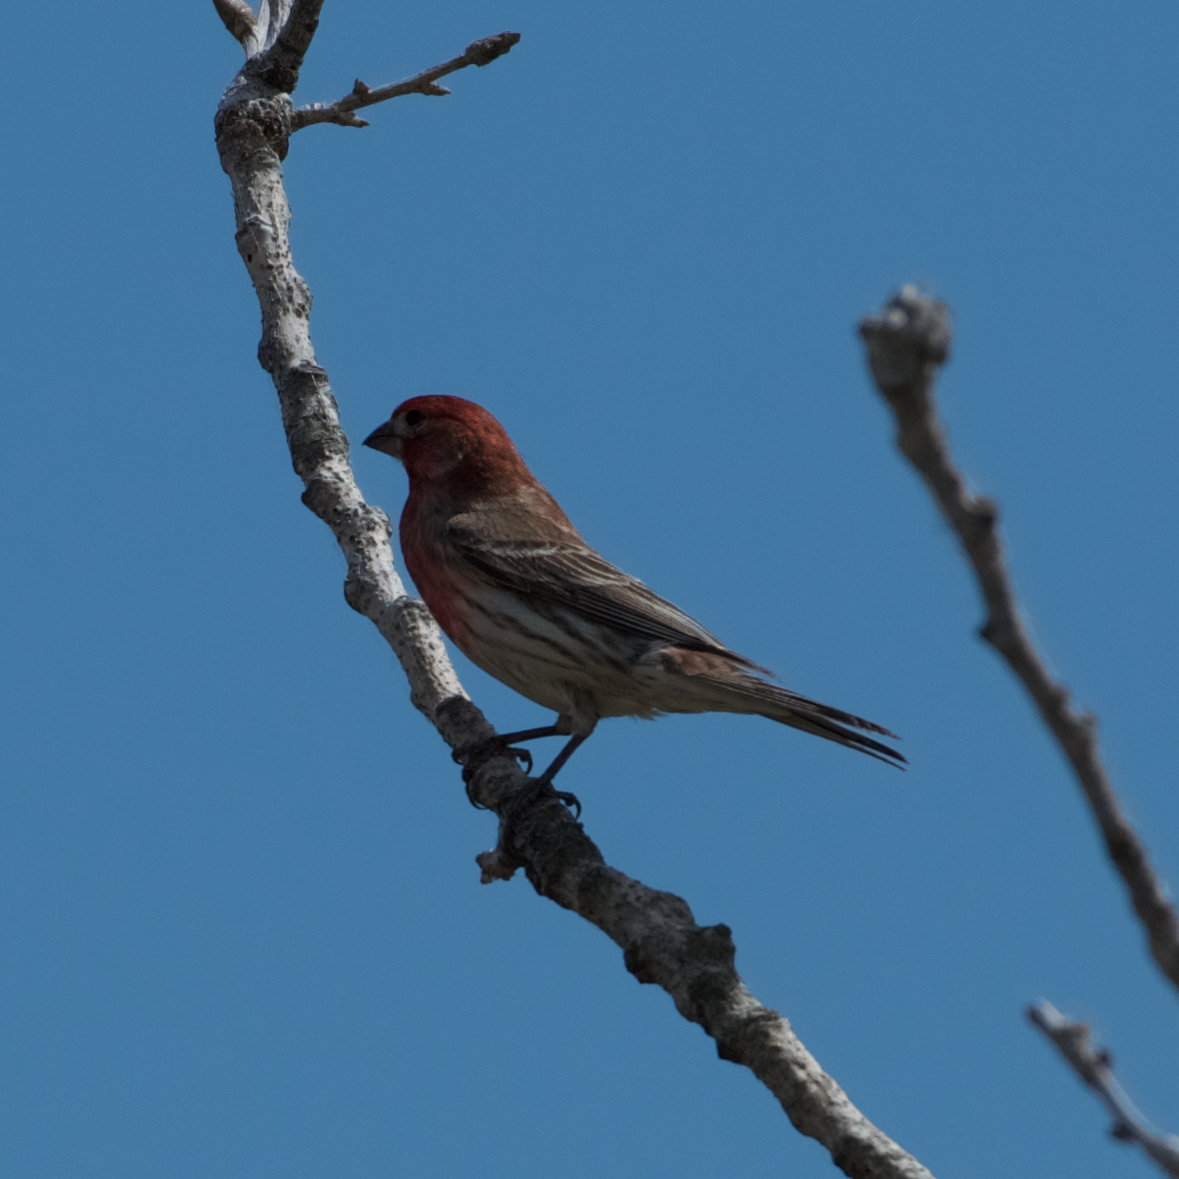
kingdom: Animalia
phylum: Chordata
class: Aves
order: Passeriformes
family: Fringillidae
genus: Haemorhous
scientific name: Haemorhous mexicanus
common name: House finch
